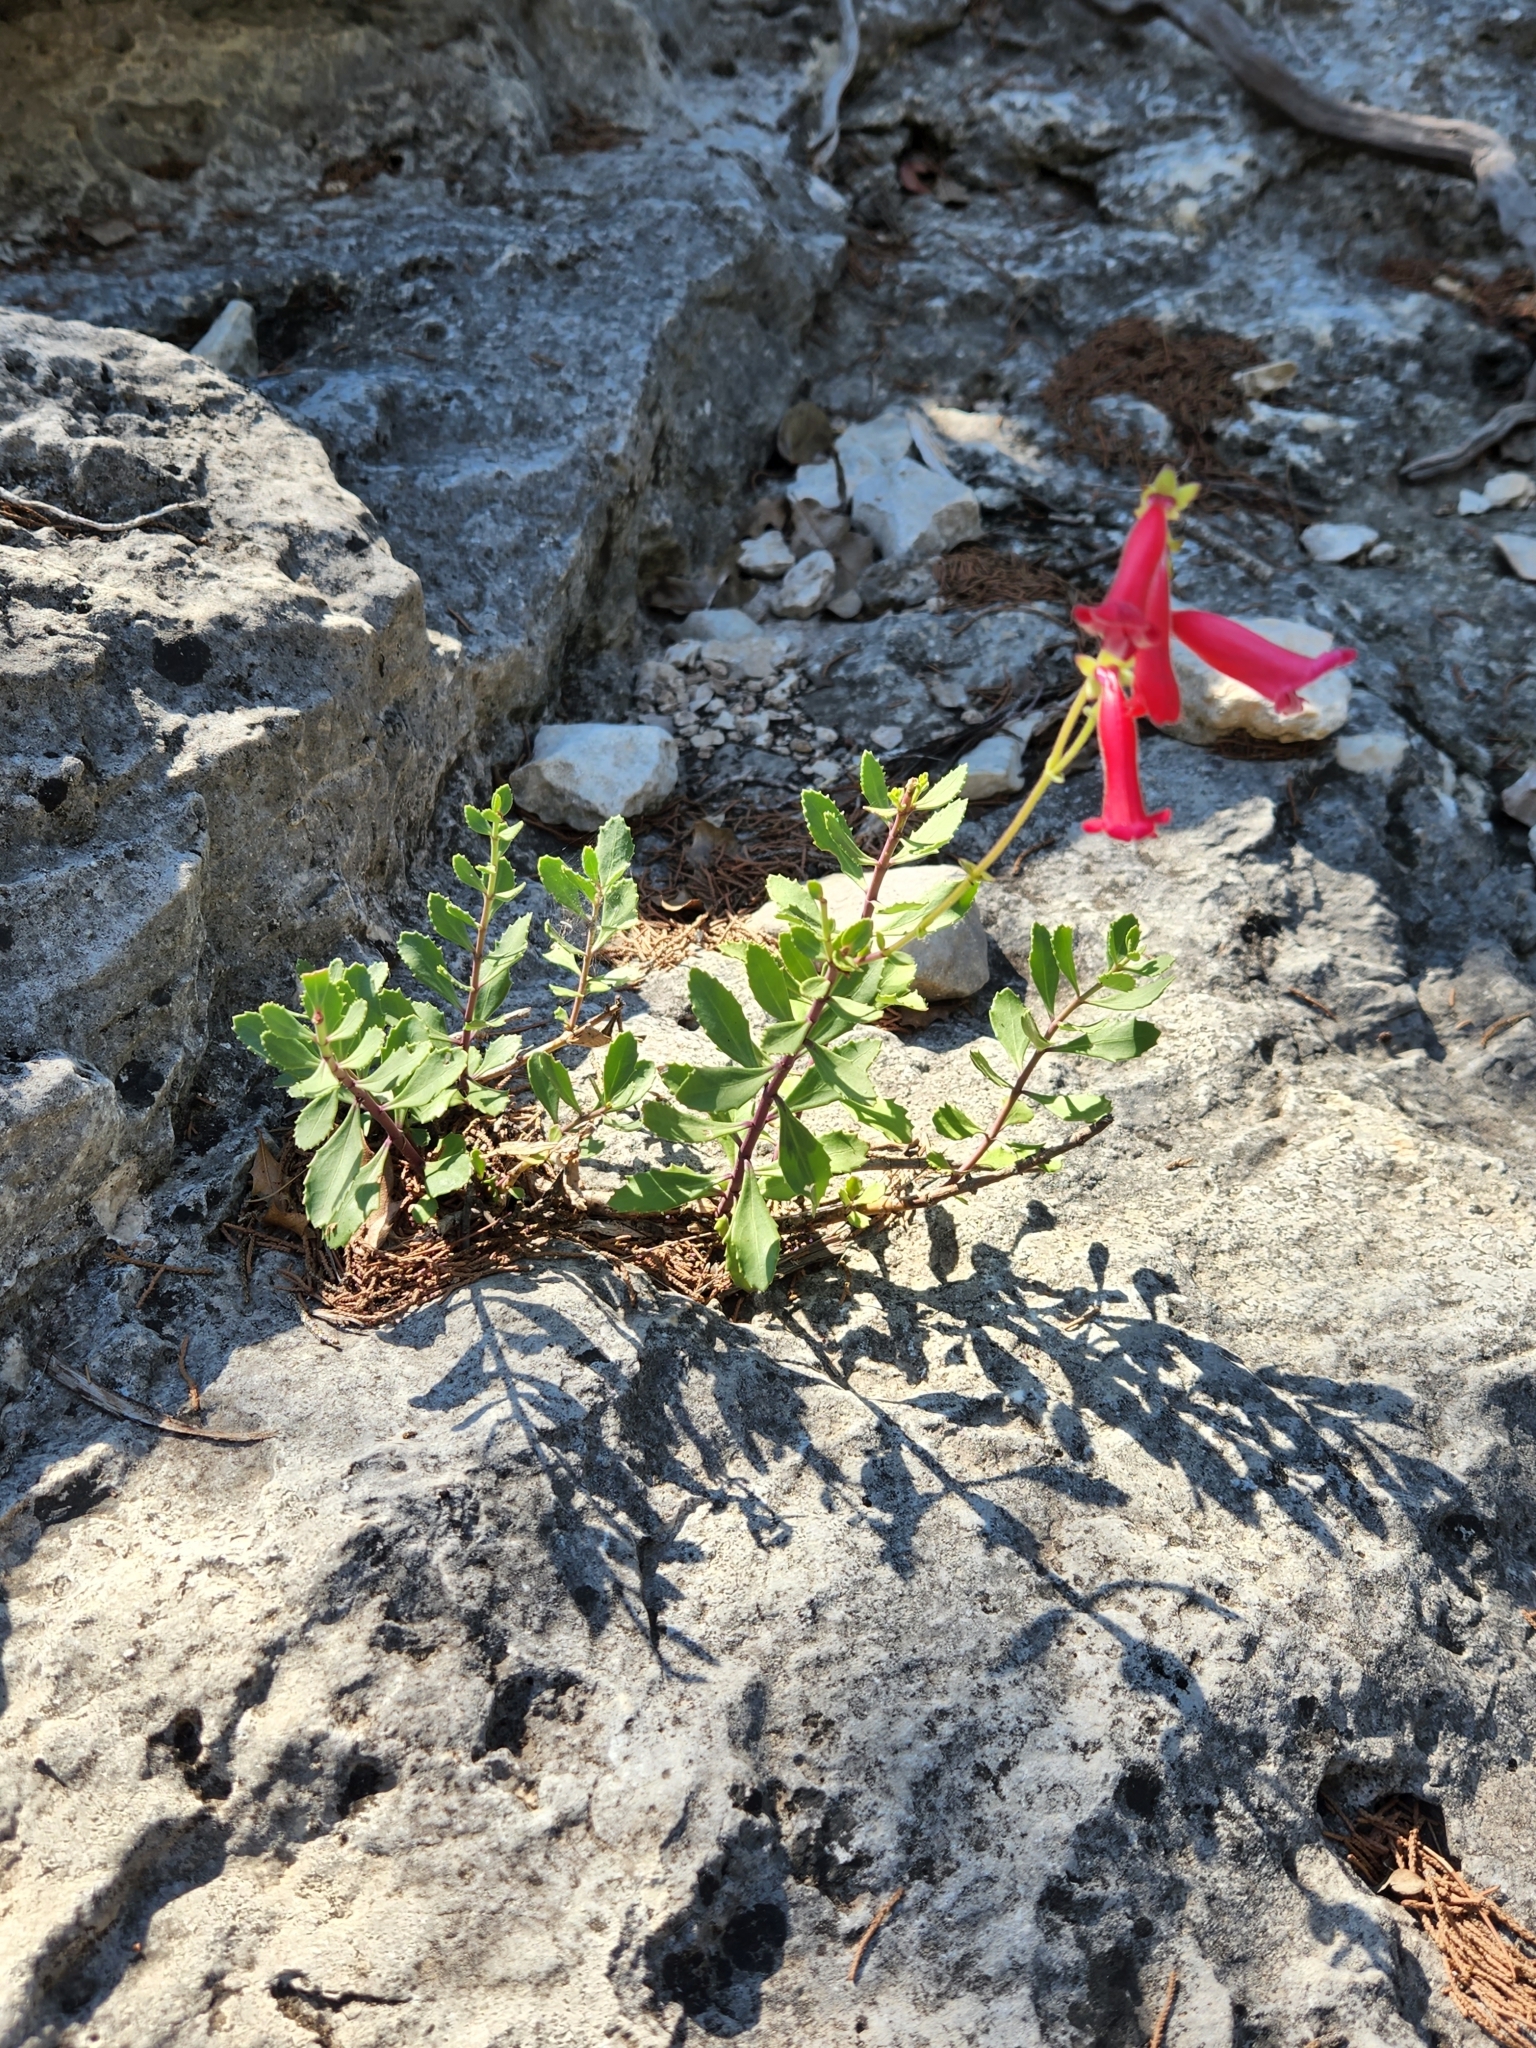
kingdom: Plantae
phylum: Tracheophyta
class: Magnoliopsida
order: Lamiales
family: Plantaginaceae
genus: Penstemon
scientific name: Penstemon baccharifolius
